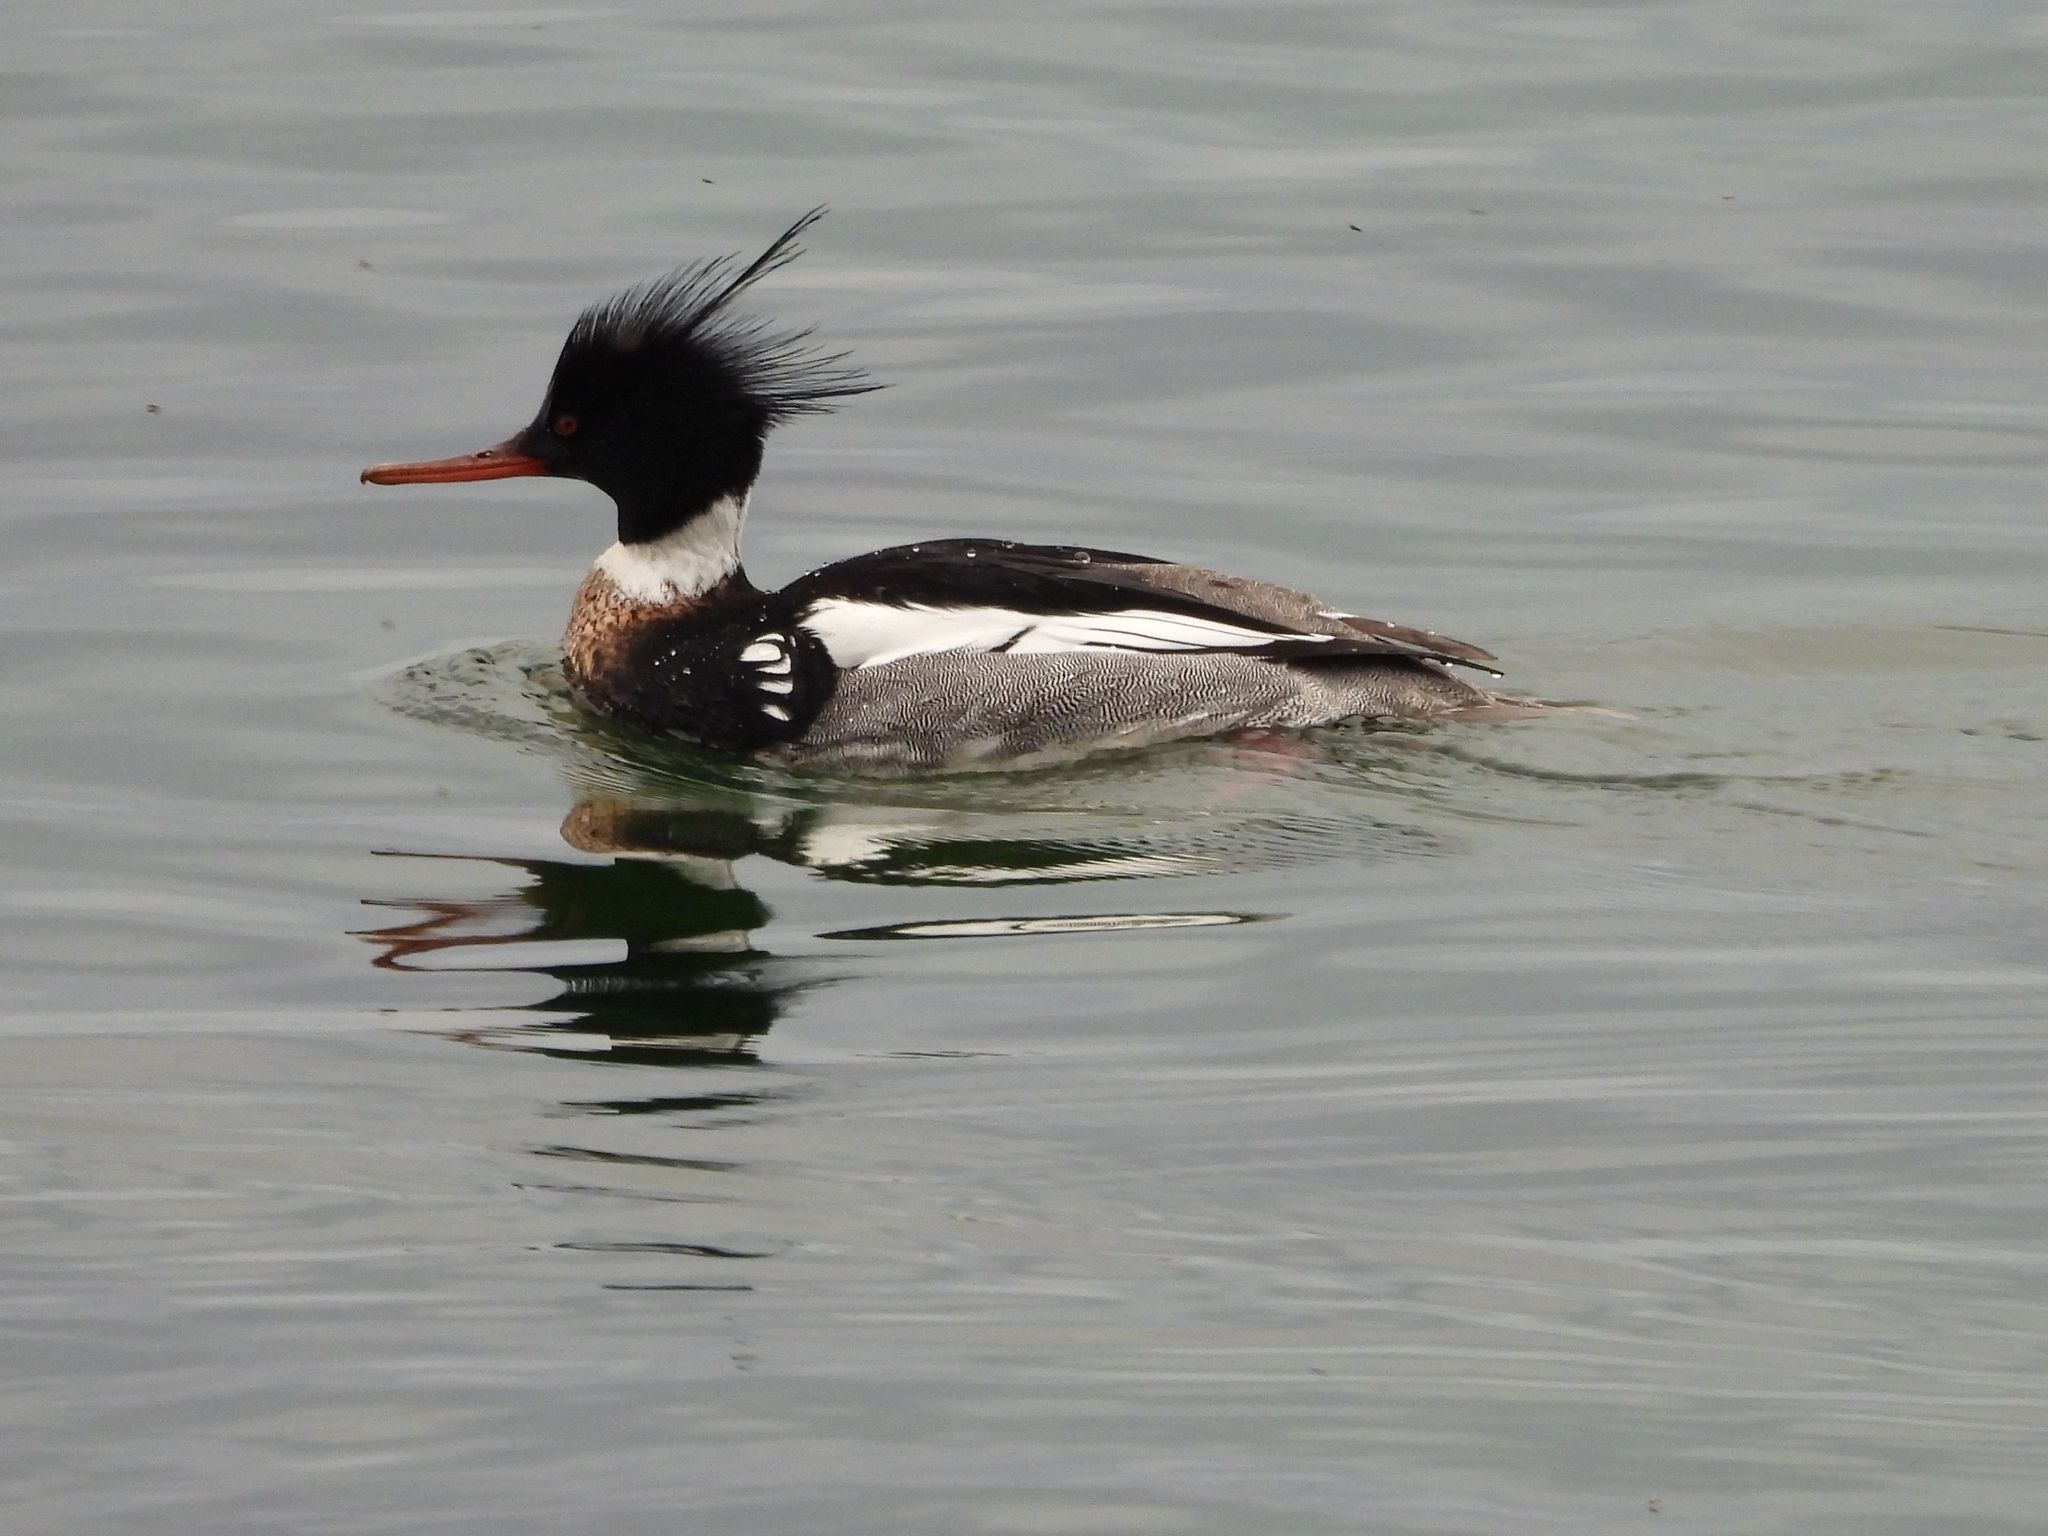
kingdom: Animalia
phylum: Chordata
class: Aves
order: Anseriformes
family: Anatidae
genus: Mergus
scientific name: Mergus serrator
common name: Red-breasted merganser
